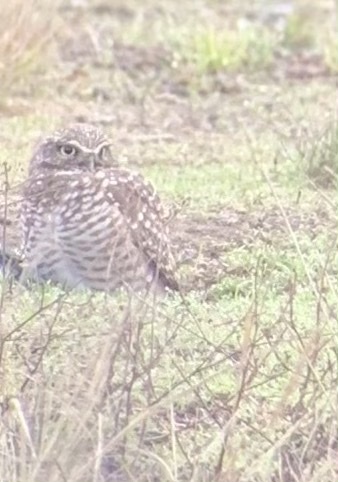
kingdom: Animalia
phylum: Chordata
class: Aves
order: Strigiformes
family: Strigidae
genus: Athene
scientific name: Athene cunicularia
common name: Burrowing owl
